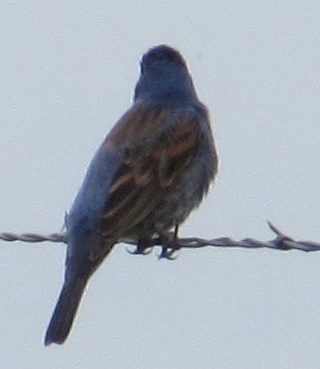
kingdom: Animalia
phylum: Chordata
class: Aves
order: Passeriformes
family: Cardinalidae
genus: Passerina
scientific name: Passerina caerulea
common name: Blue grosbeak
